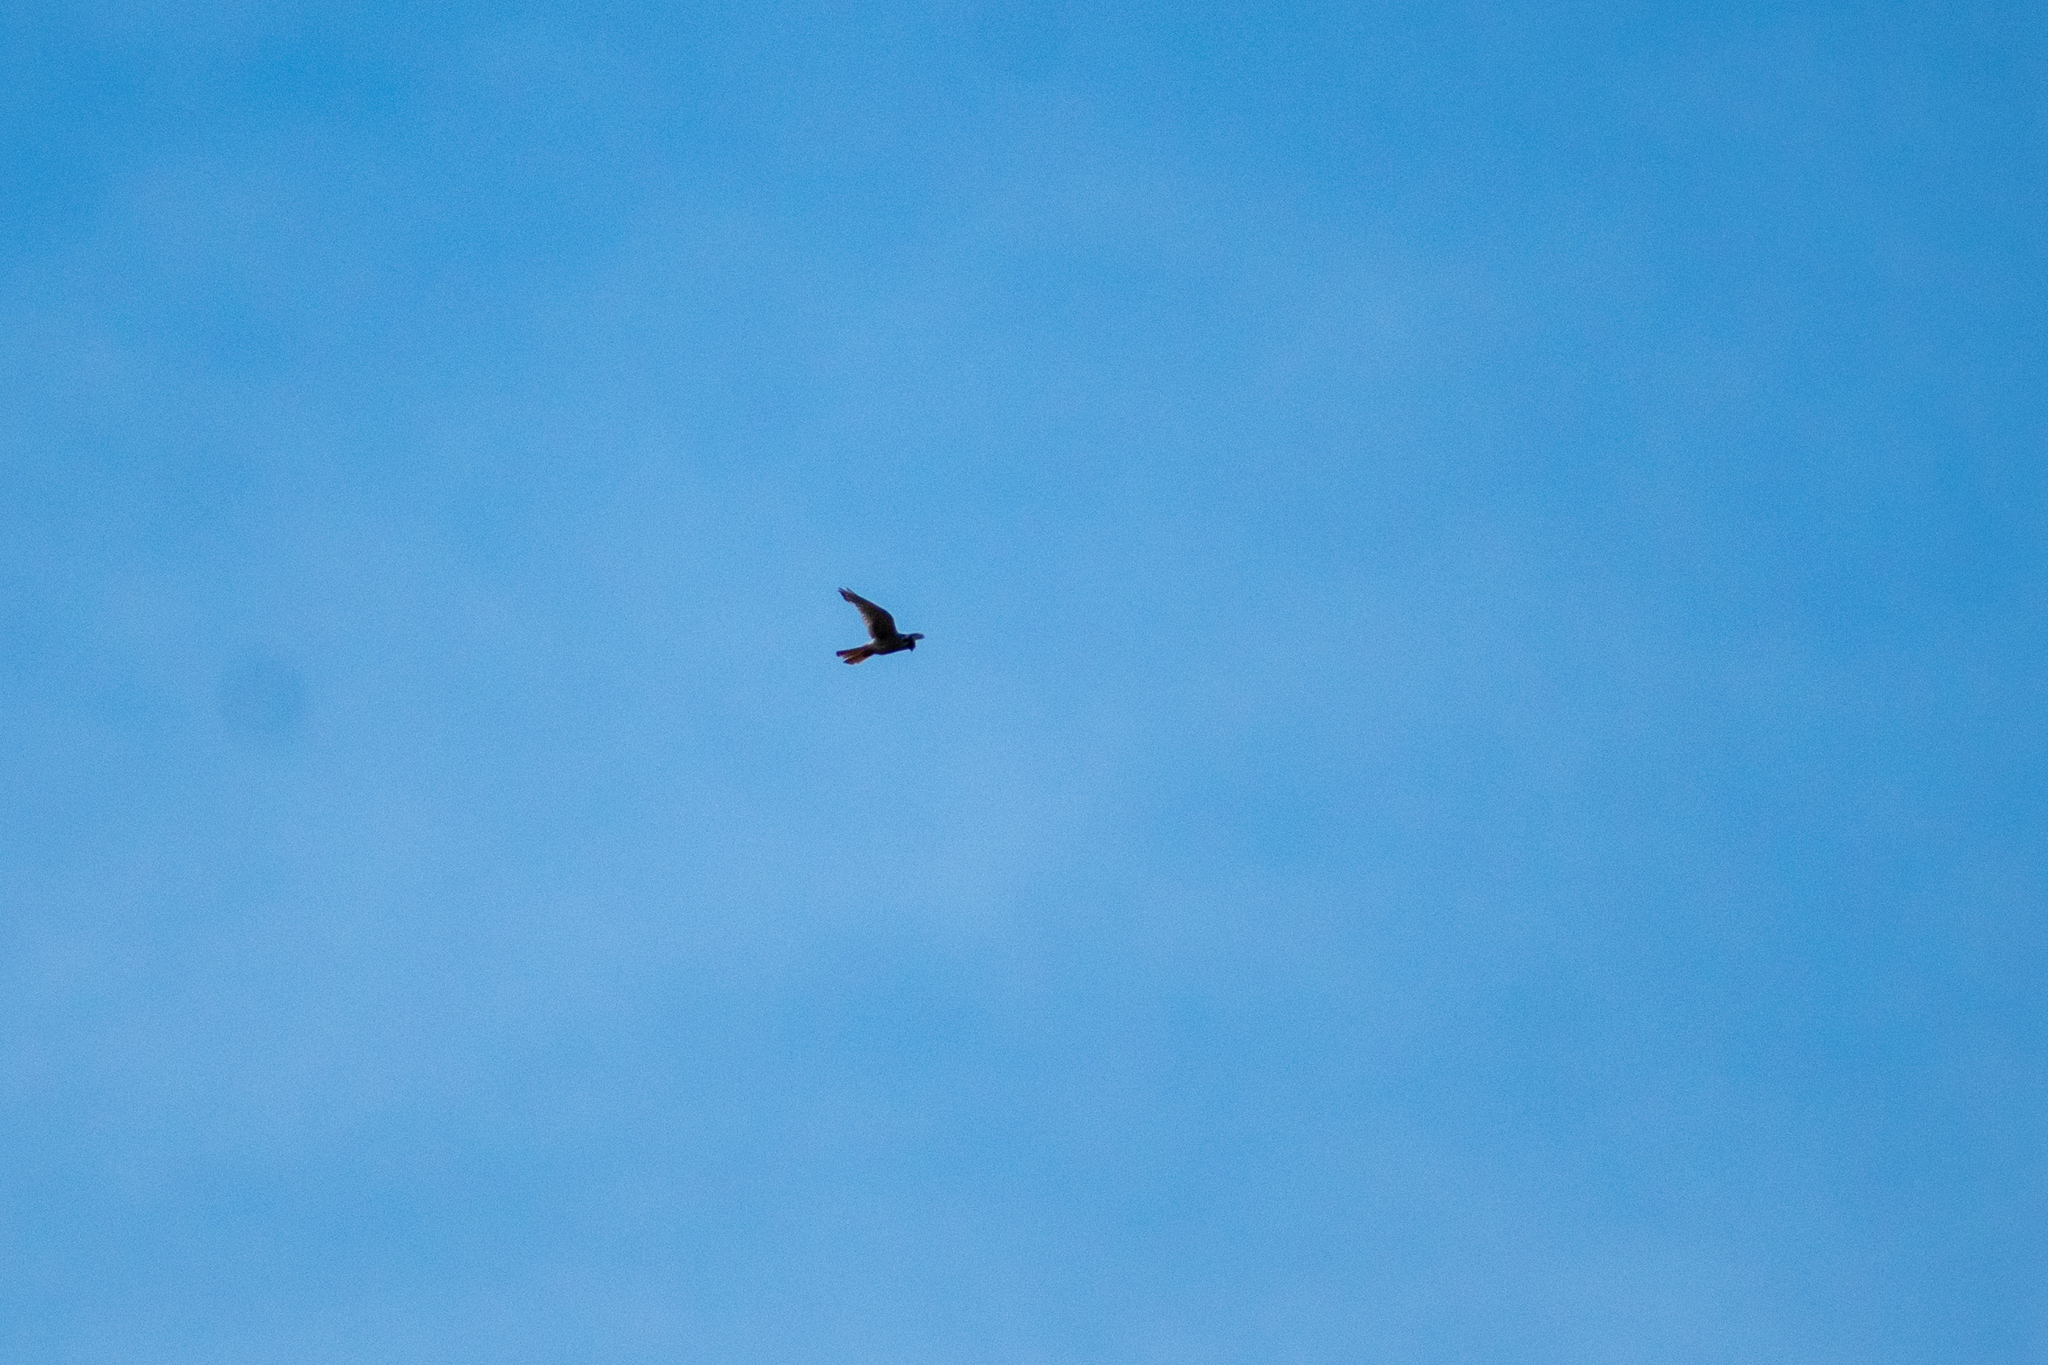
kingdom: Animalia
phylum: Chordata
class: Aves
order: Falconiformes
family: Falconidae
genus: Falco
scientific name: Falco sparverius
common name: American kestrel
